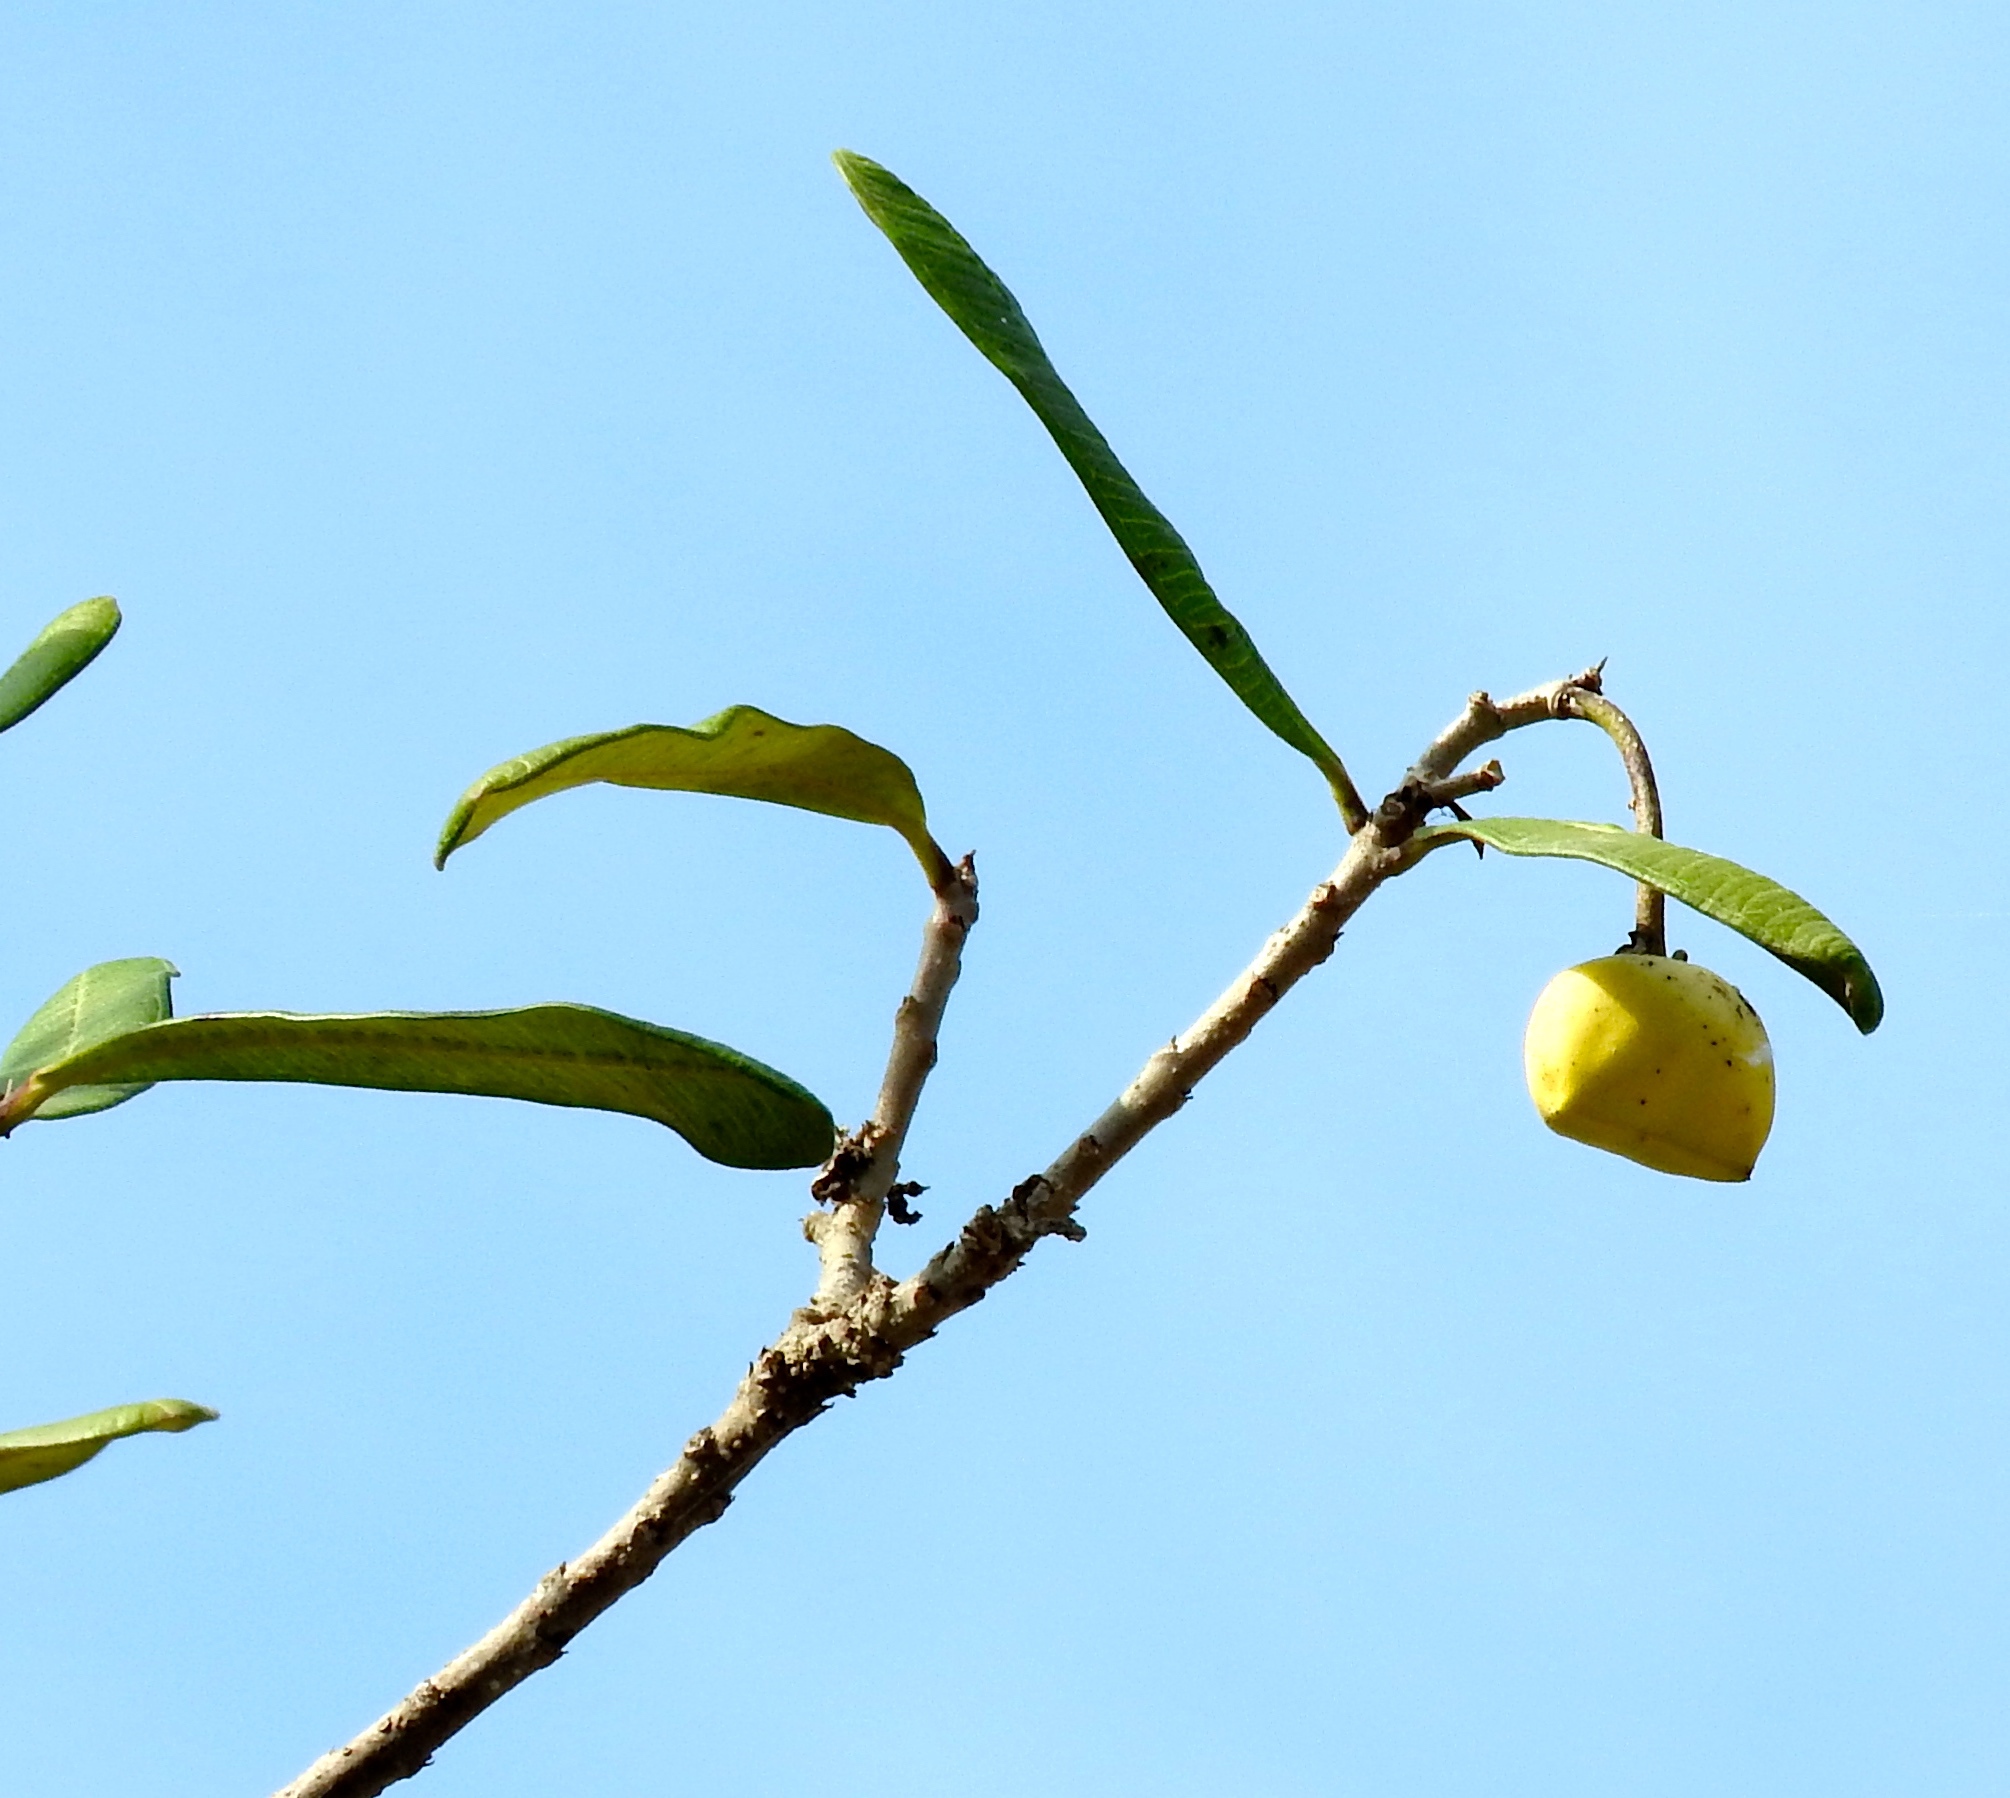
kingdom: Plantae
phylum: Tracheophyta
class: Magnoliopsida
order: Gentianales
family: Apocynaceae
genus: Cascabela
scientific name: Cascabela ovata
